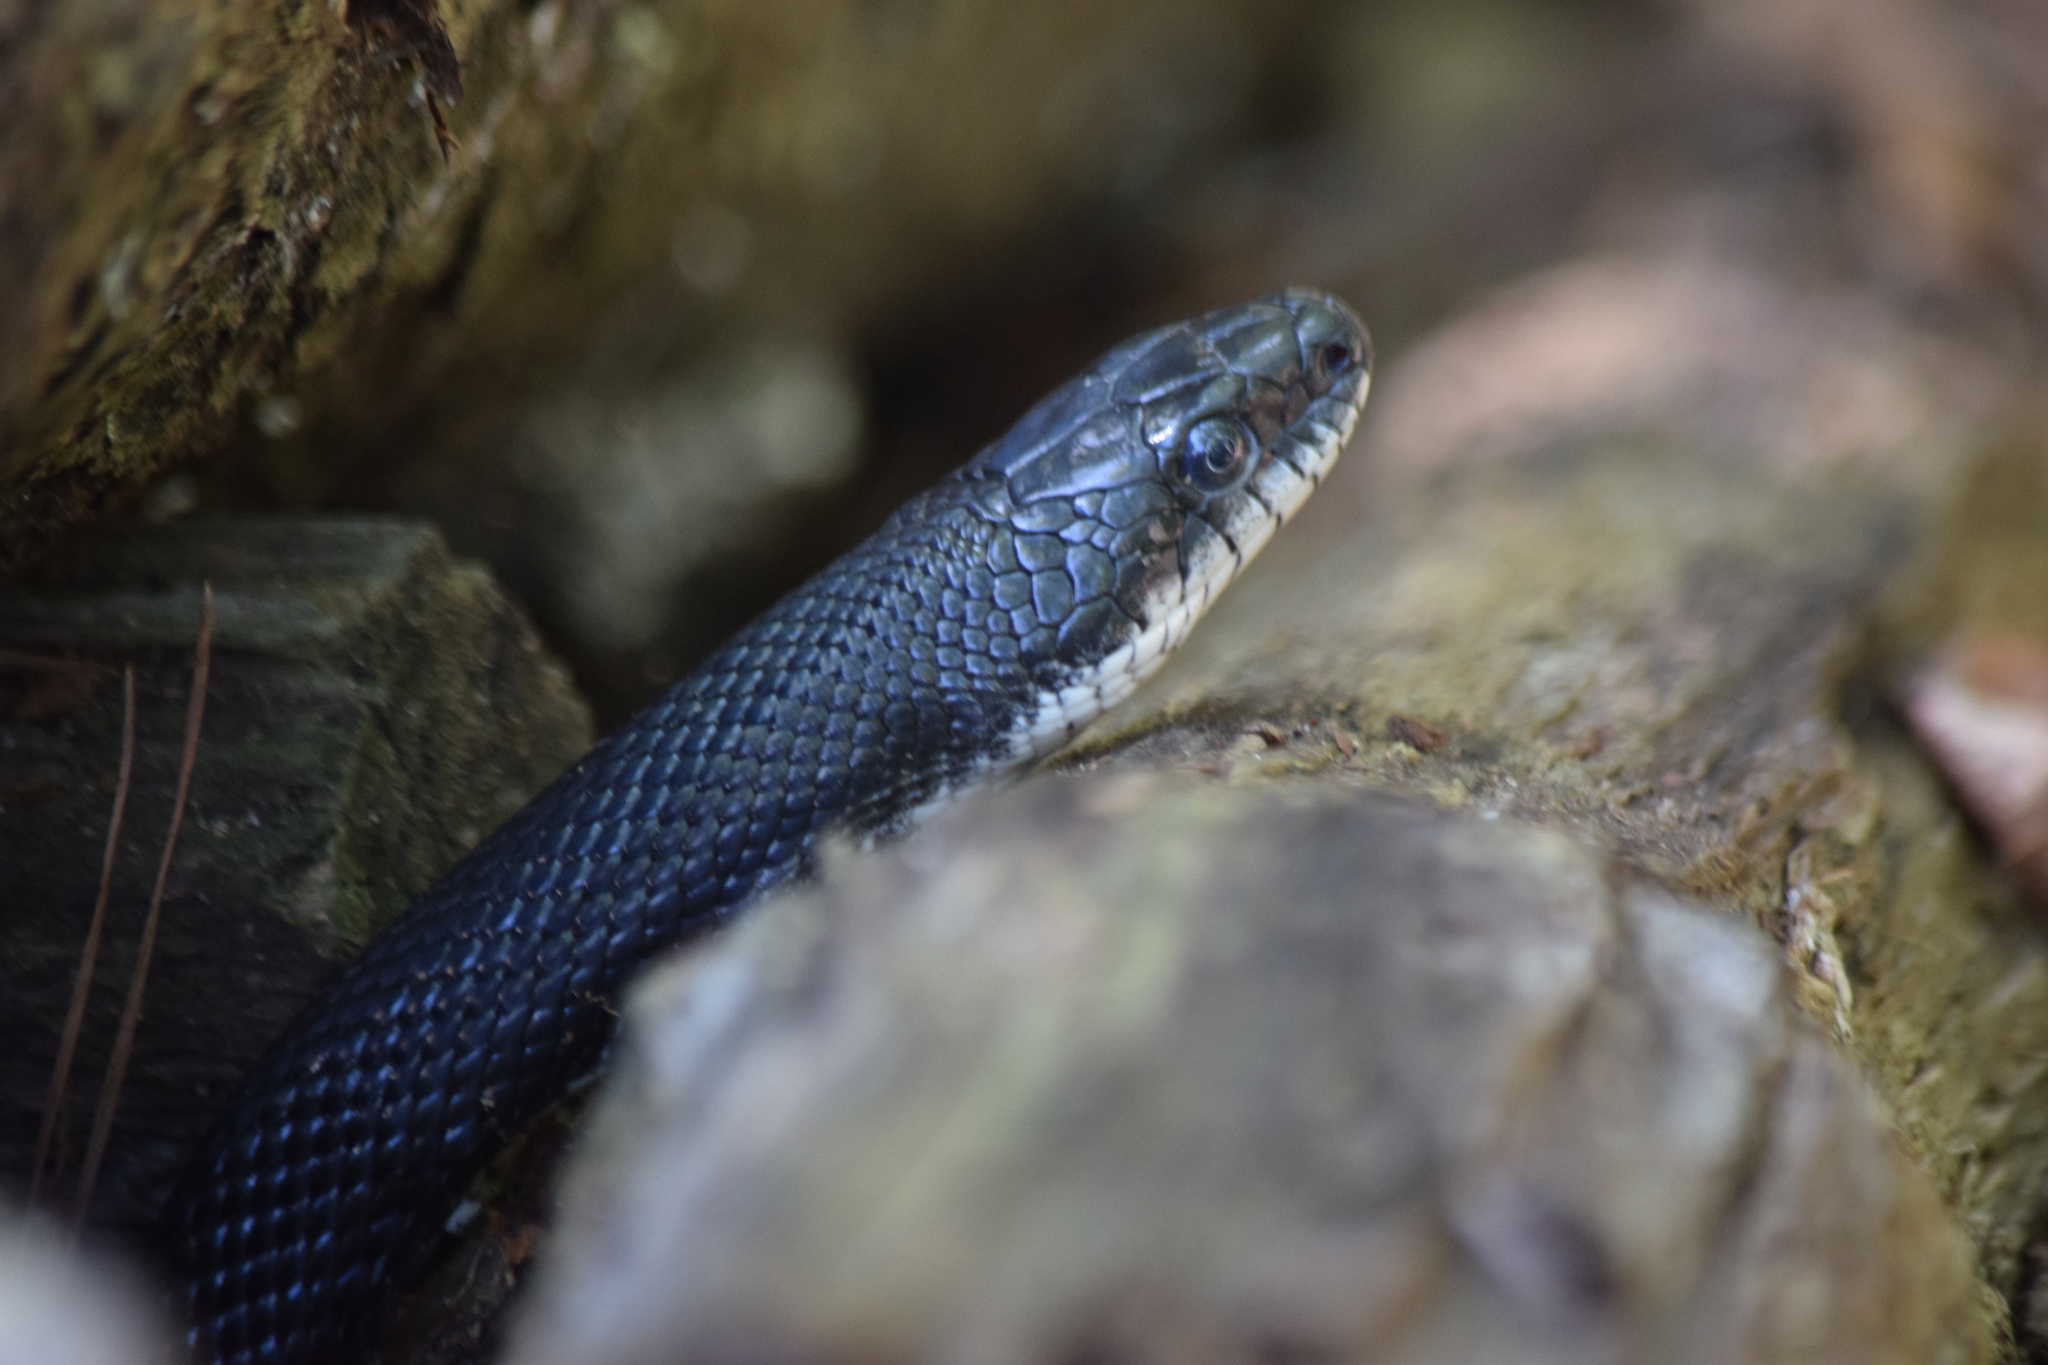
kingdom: Animalia
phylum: Chordata
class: Squamata
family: Colubridae
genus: Pantherophis
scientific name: Pantherophis alleghaniensis
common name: Eastern rat snake
